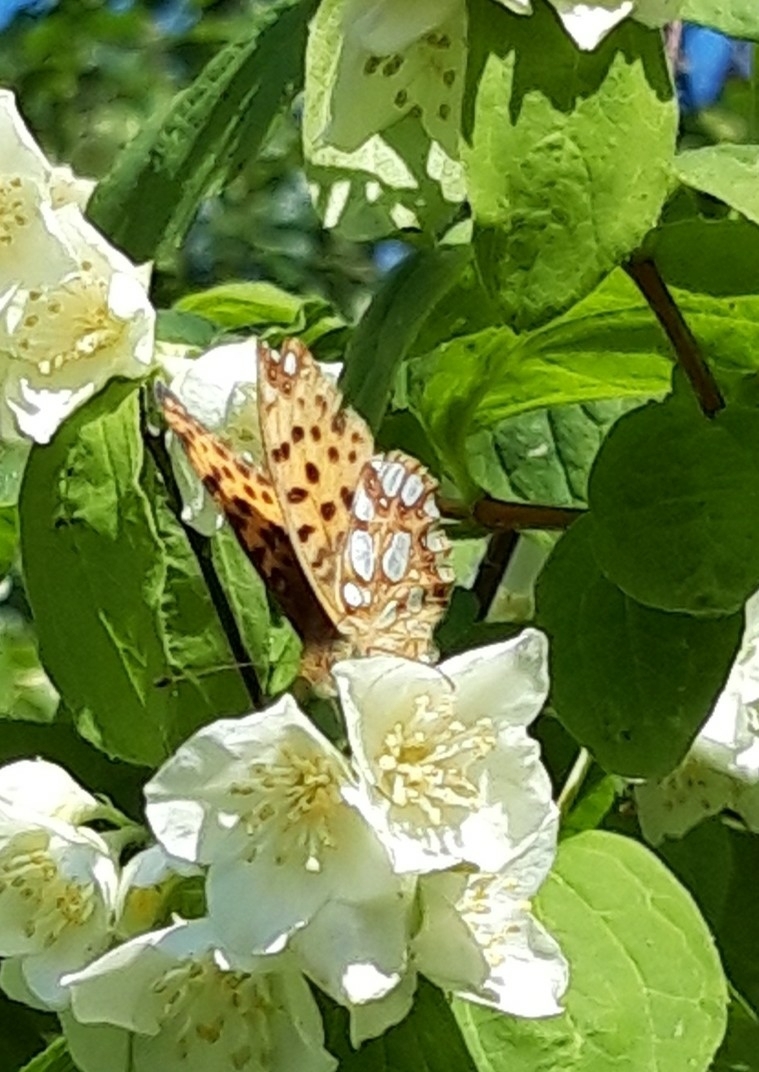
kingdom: Animalia
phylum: Arthropoda
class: Insecta
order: Lepidoptera
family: Nymphalidae
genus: Issoria
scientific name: Issoria lathonia
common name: Queen of spain fritillary
